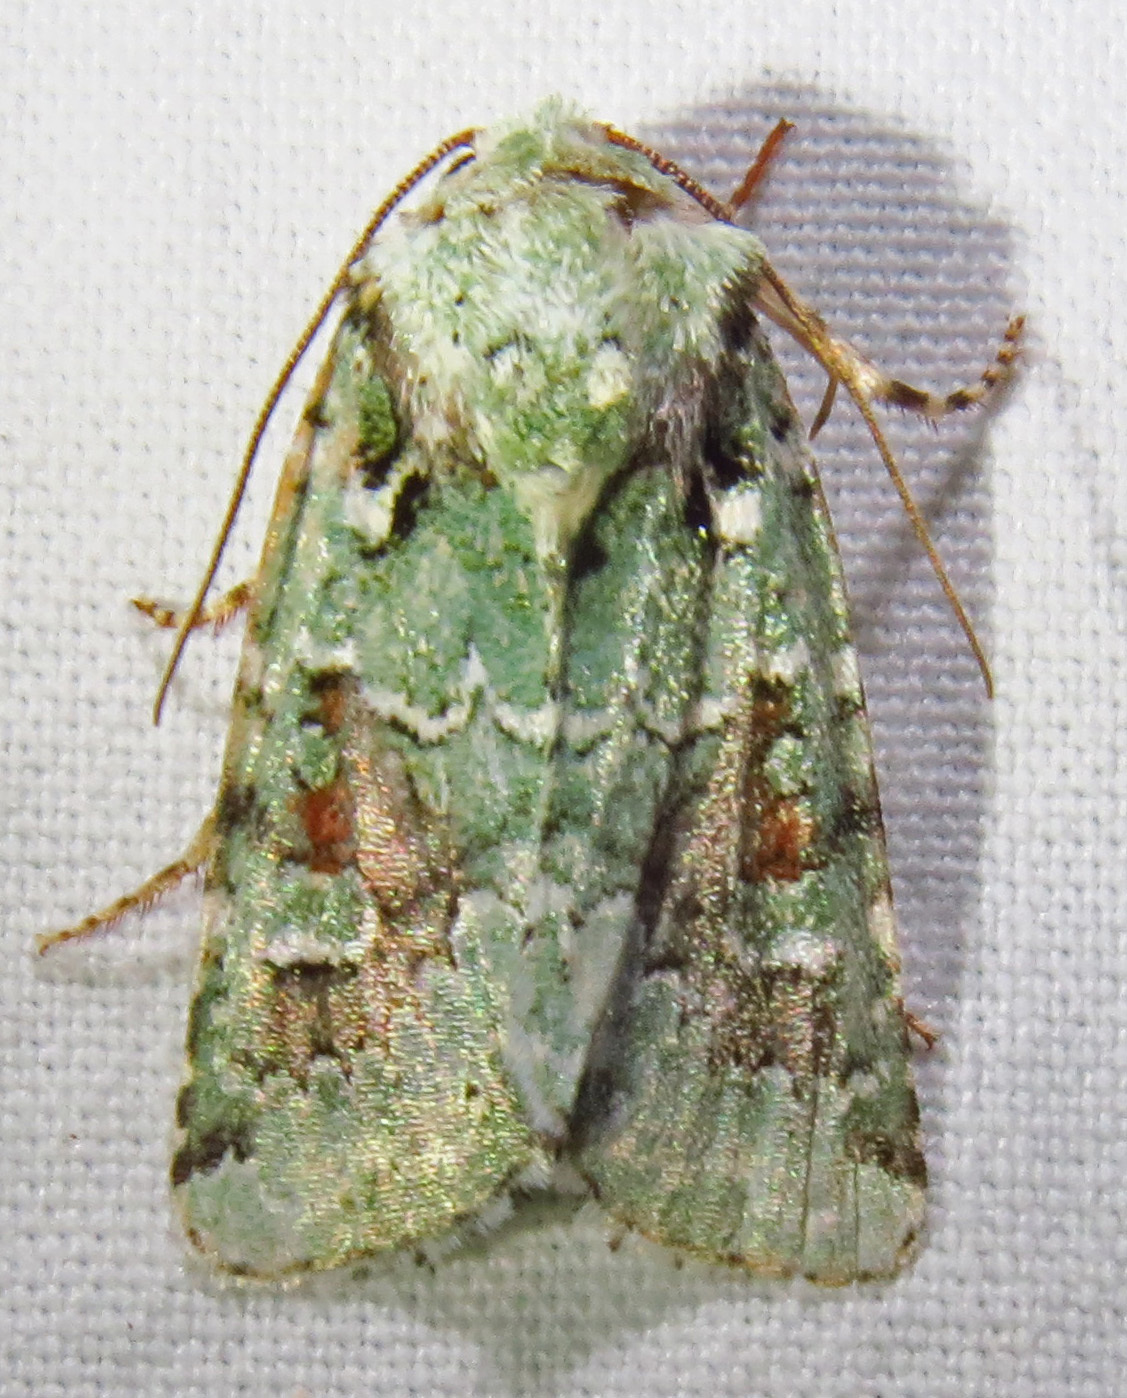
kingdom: Animalia
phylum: Arthropoda
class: Insecta
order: Lepidoptera
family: Noctuidae
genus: Lacinipolia
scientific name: Lacinipolia laudabilis
